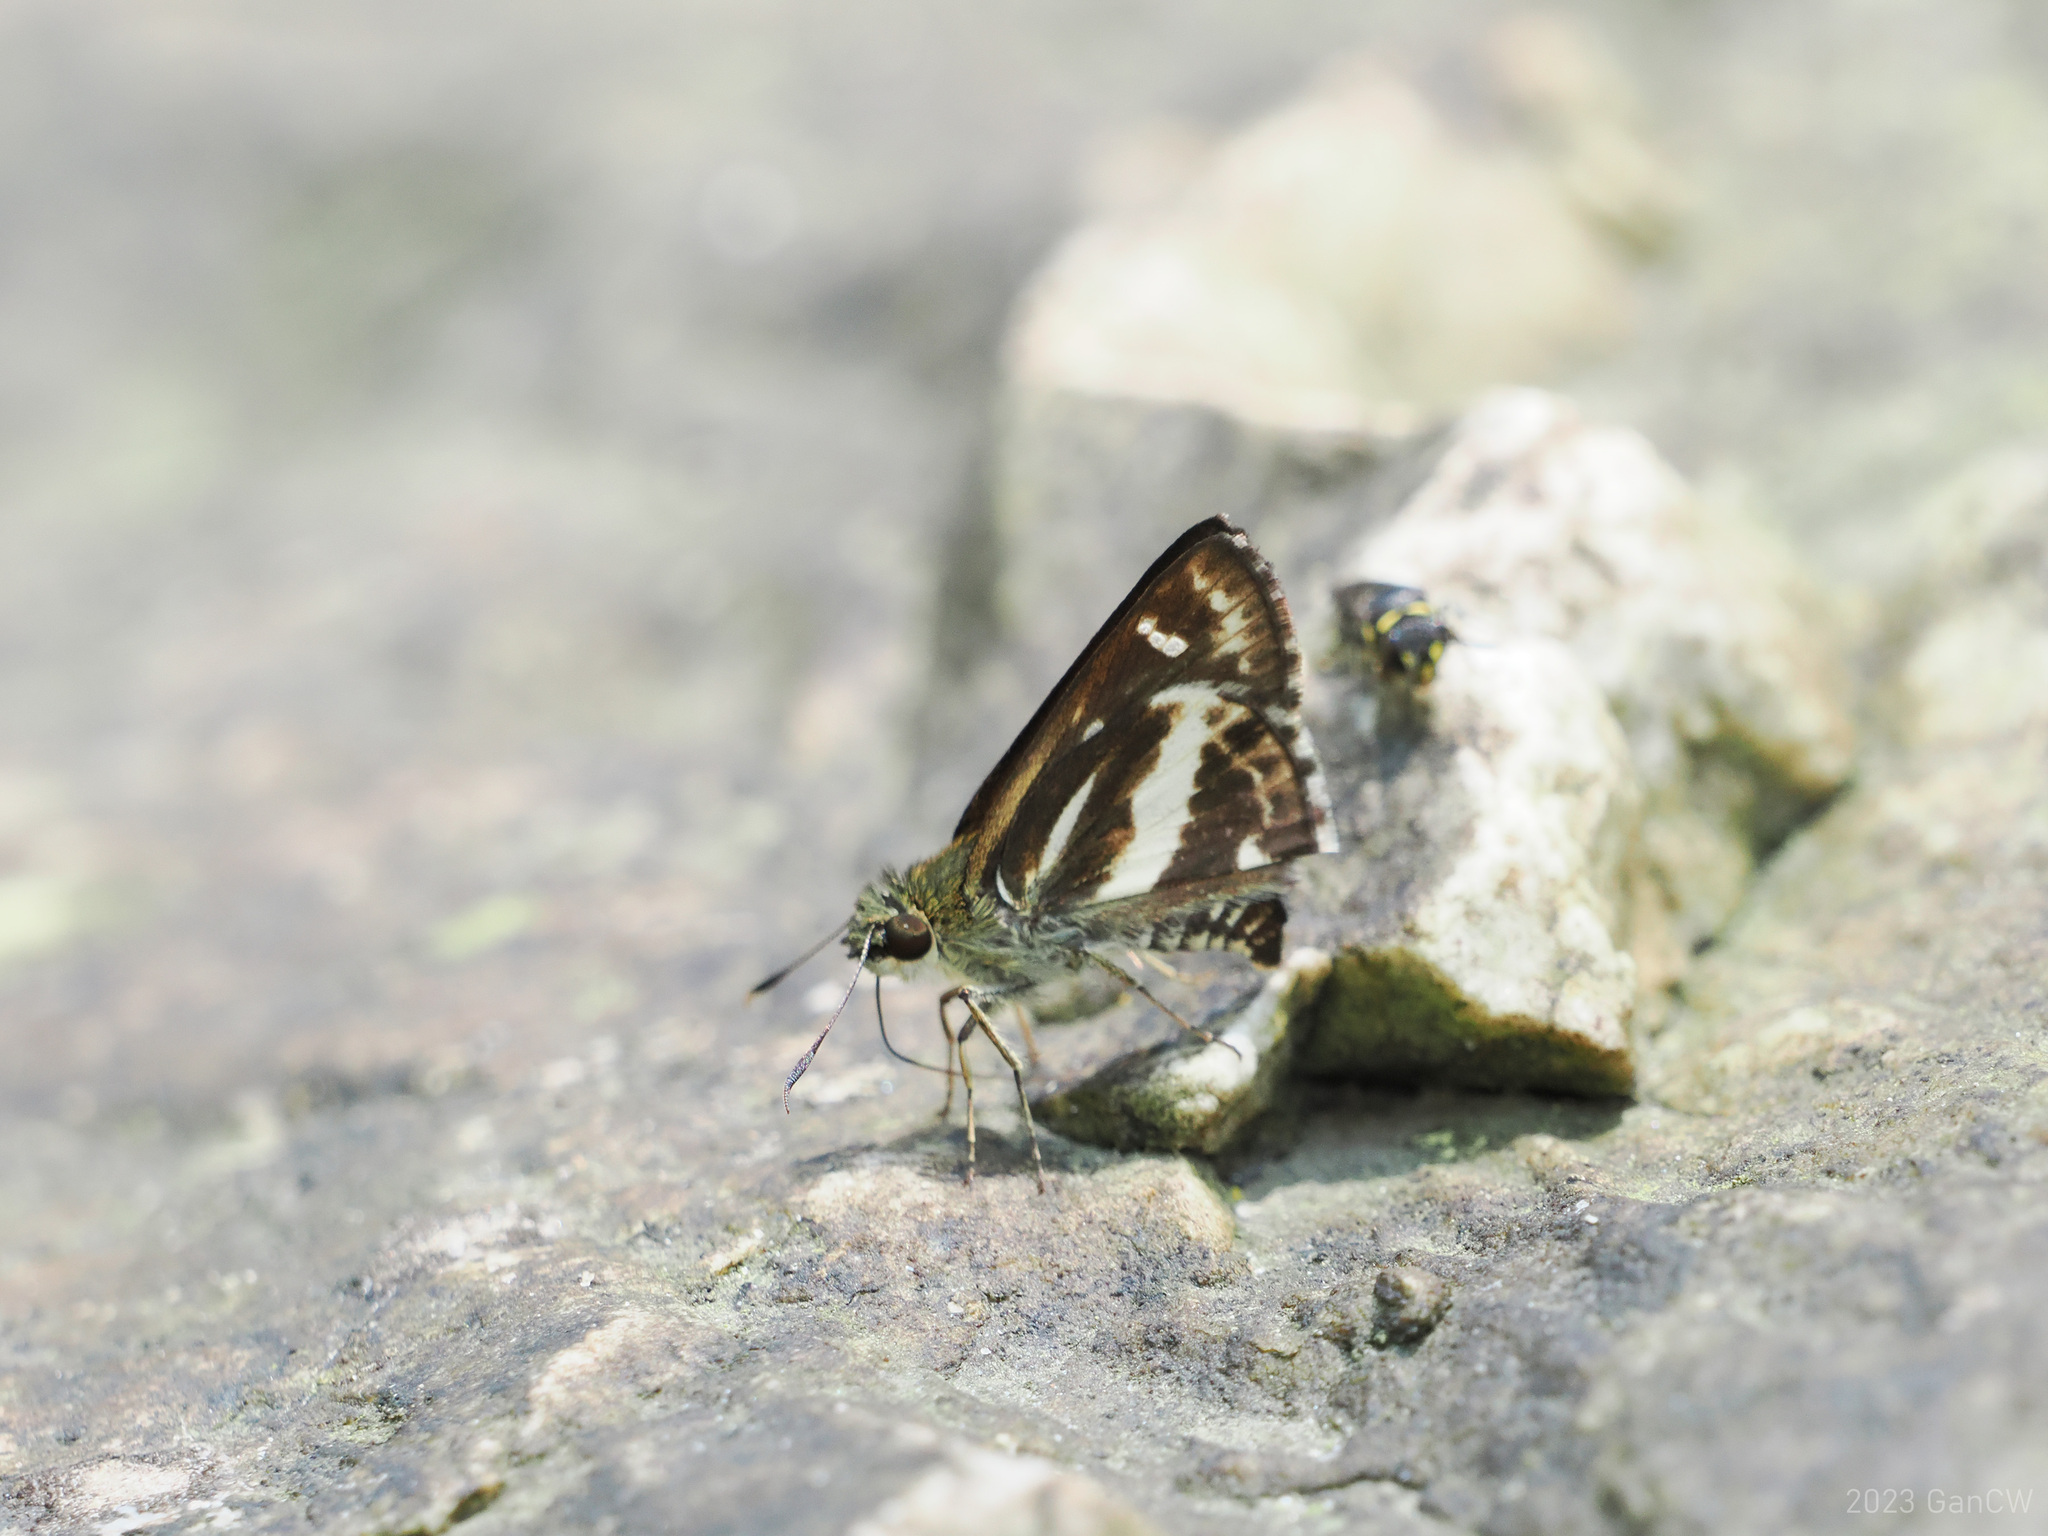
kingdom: Animalia
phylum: Arthropoda
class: Insecta
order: Lepidoptera
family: Hesperiidae
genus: Sebastonyma
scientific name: Sebastonyma dolopia
